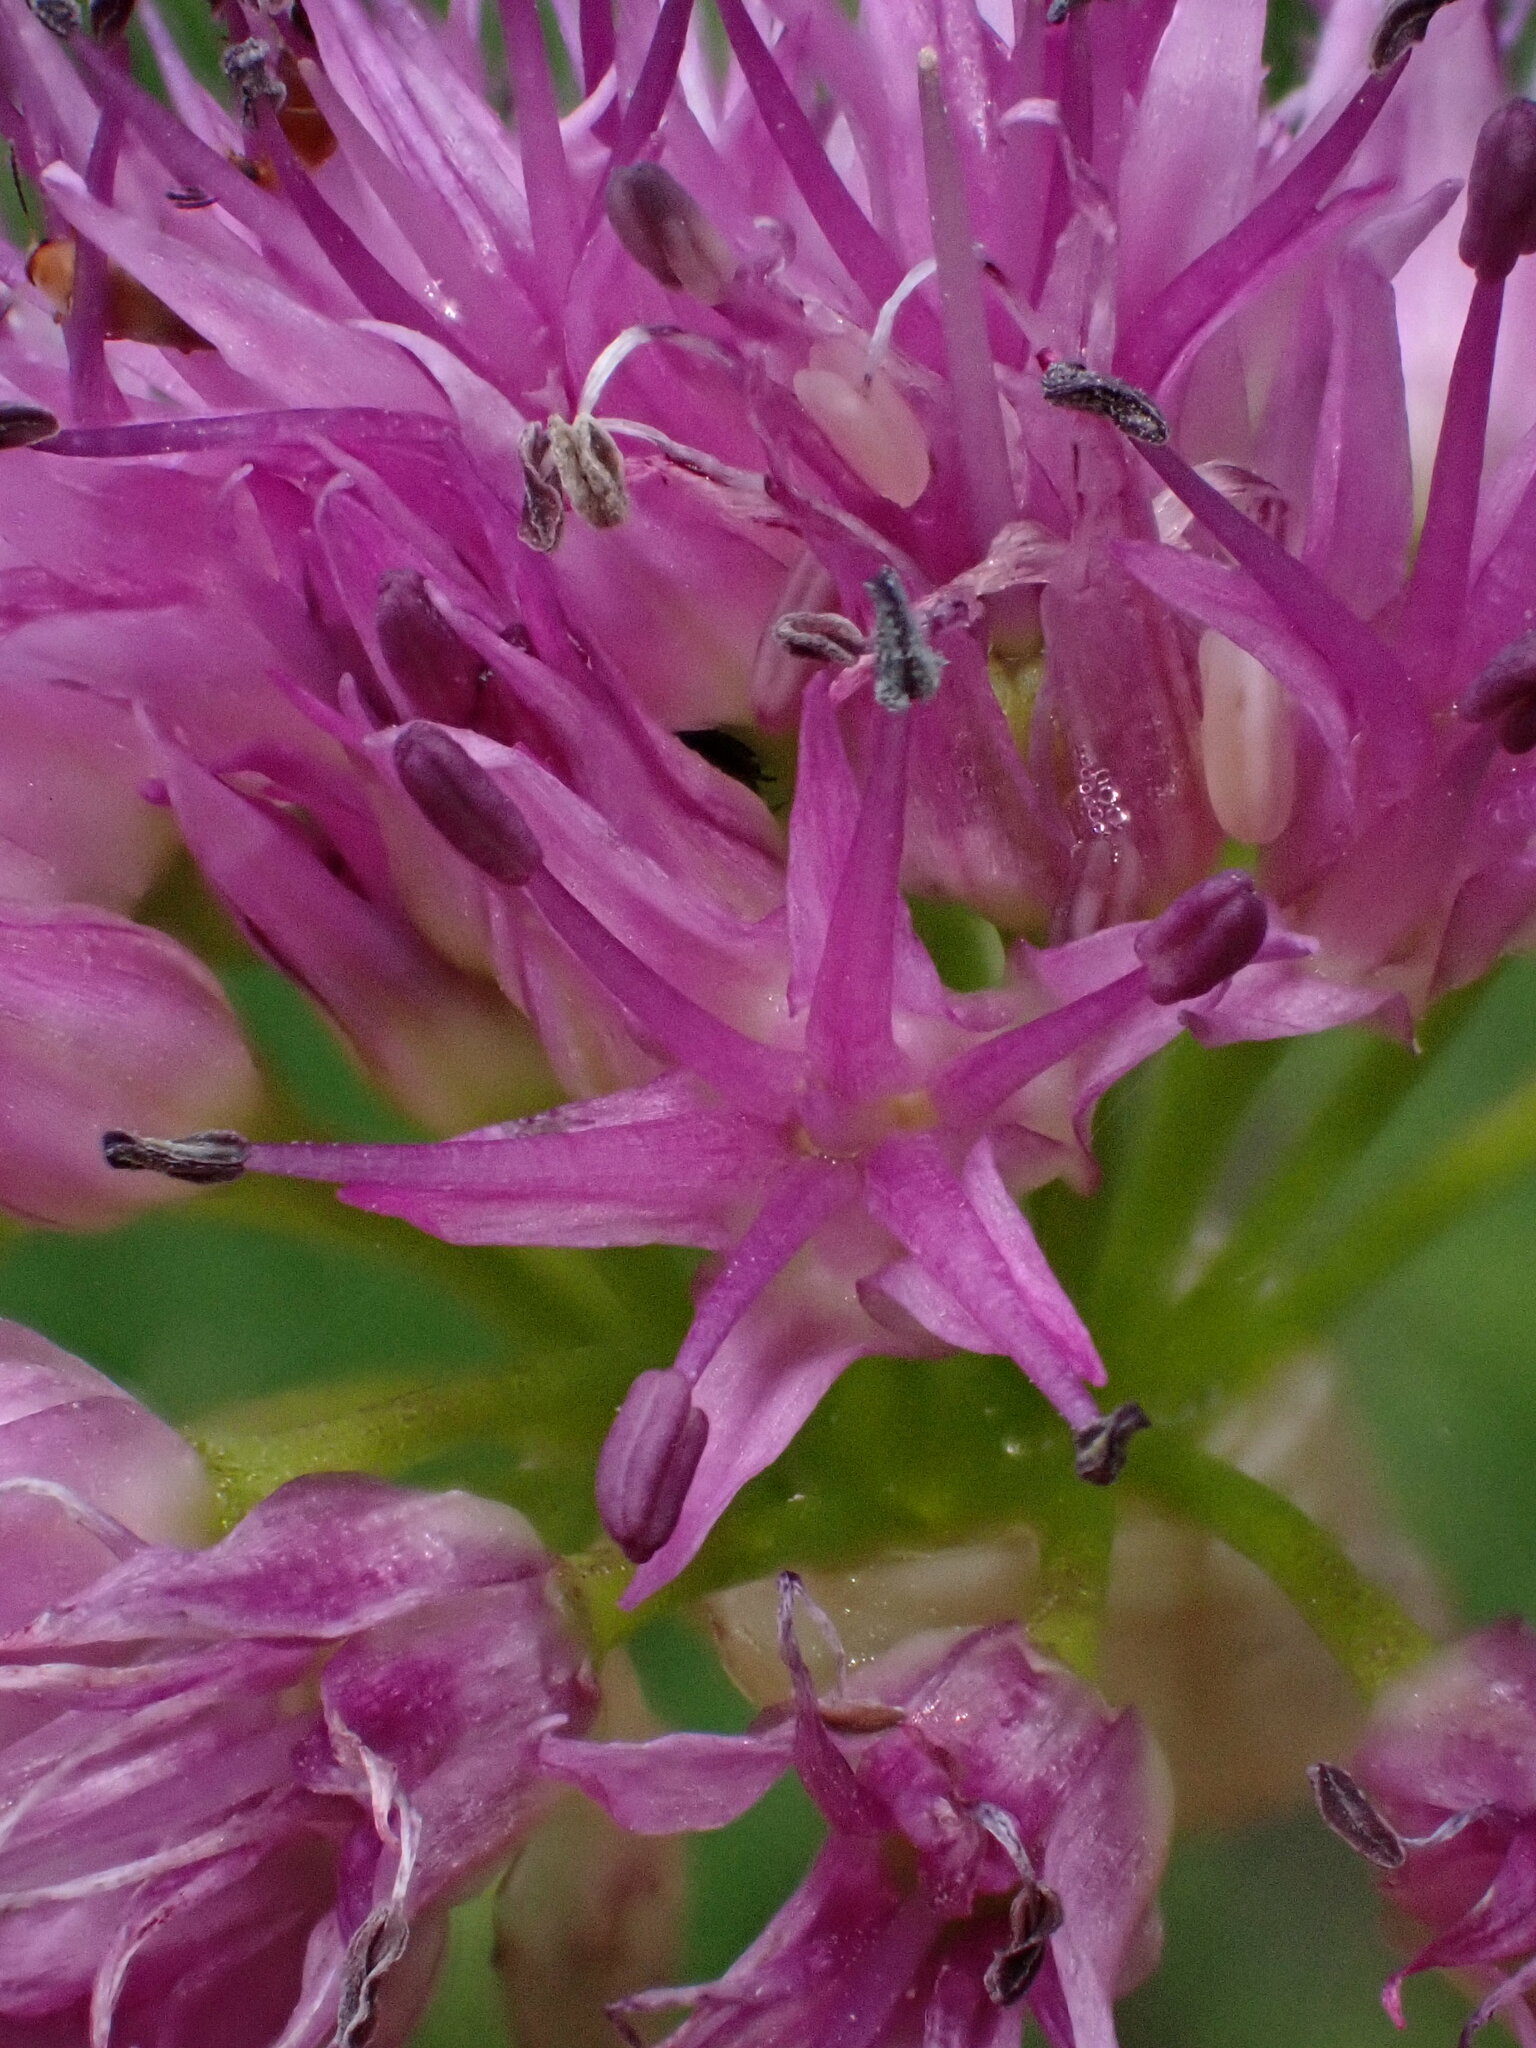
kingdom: Plantae
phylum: Tracheophyta
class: Liliopsida
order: Asparagales
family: Amaryllidaceae
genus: Allium
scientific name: Allium validum
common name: Pacific mountain onion
